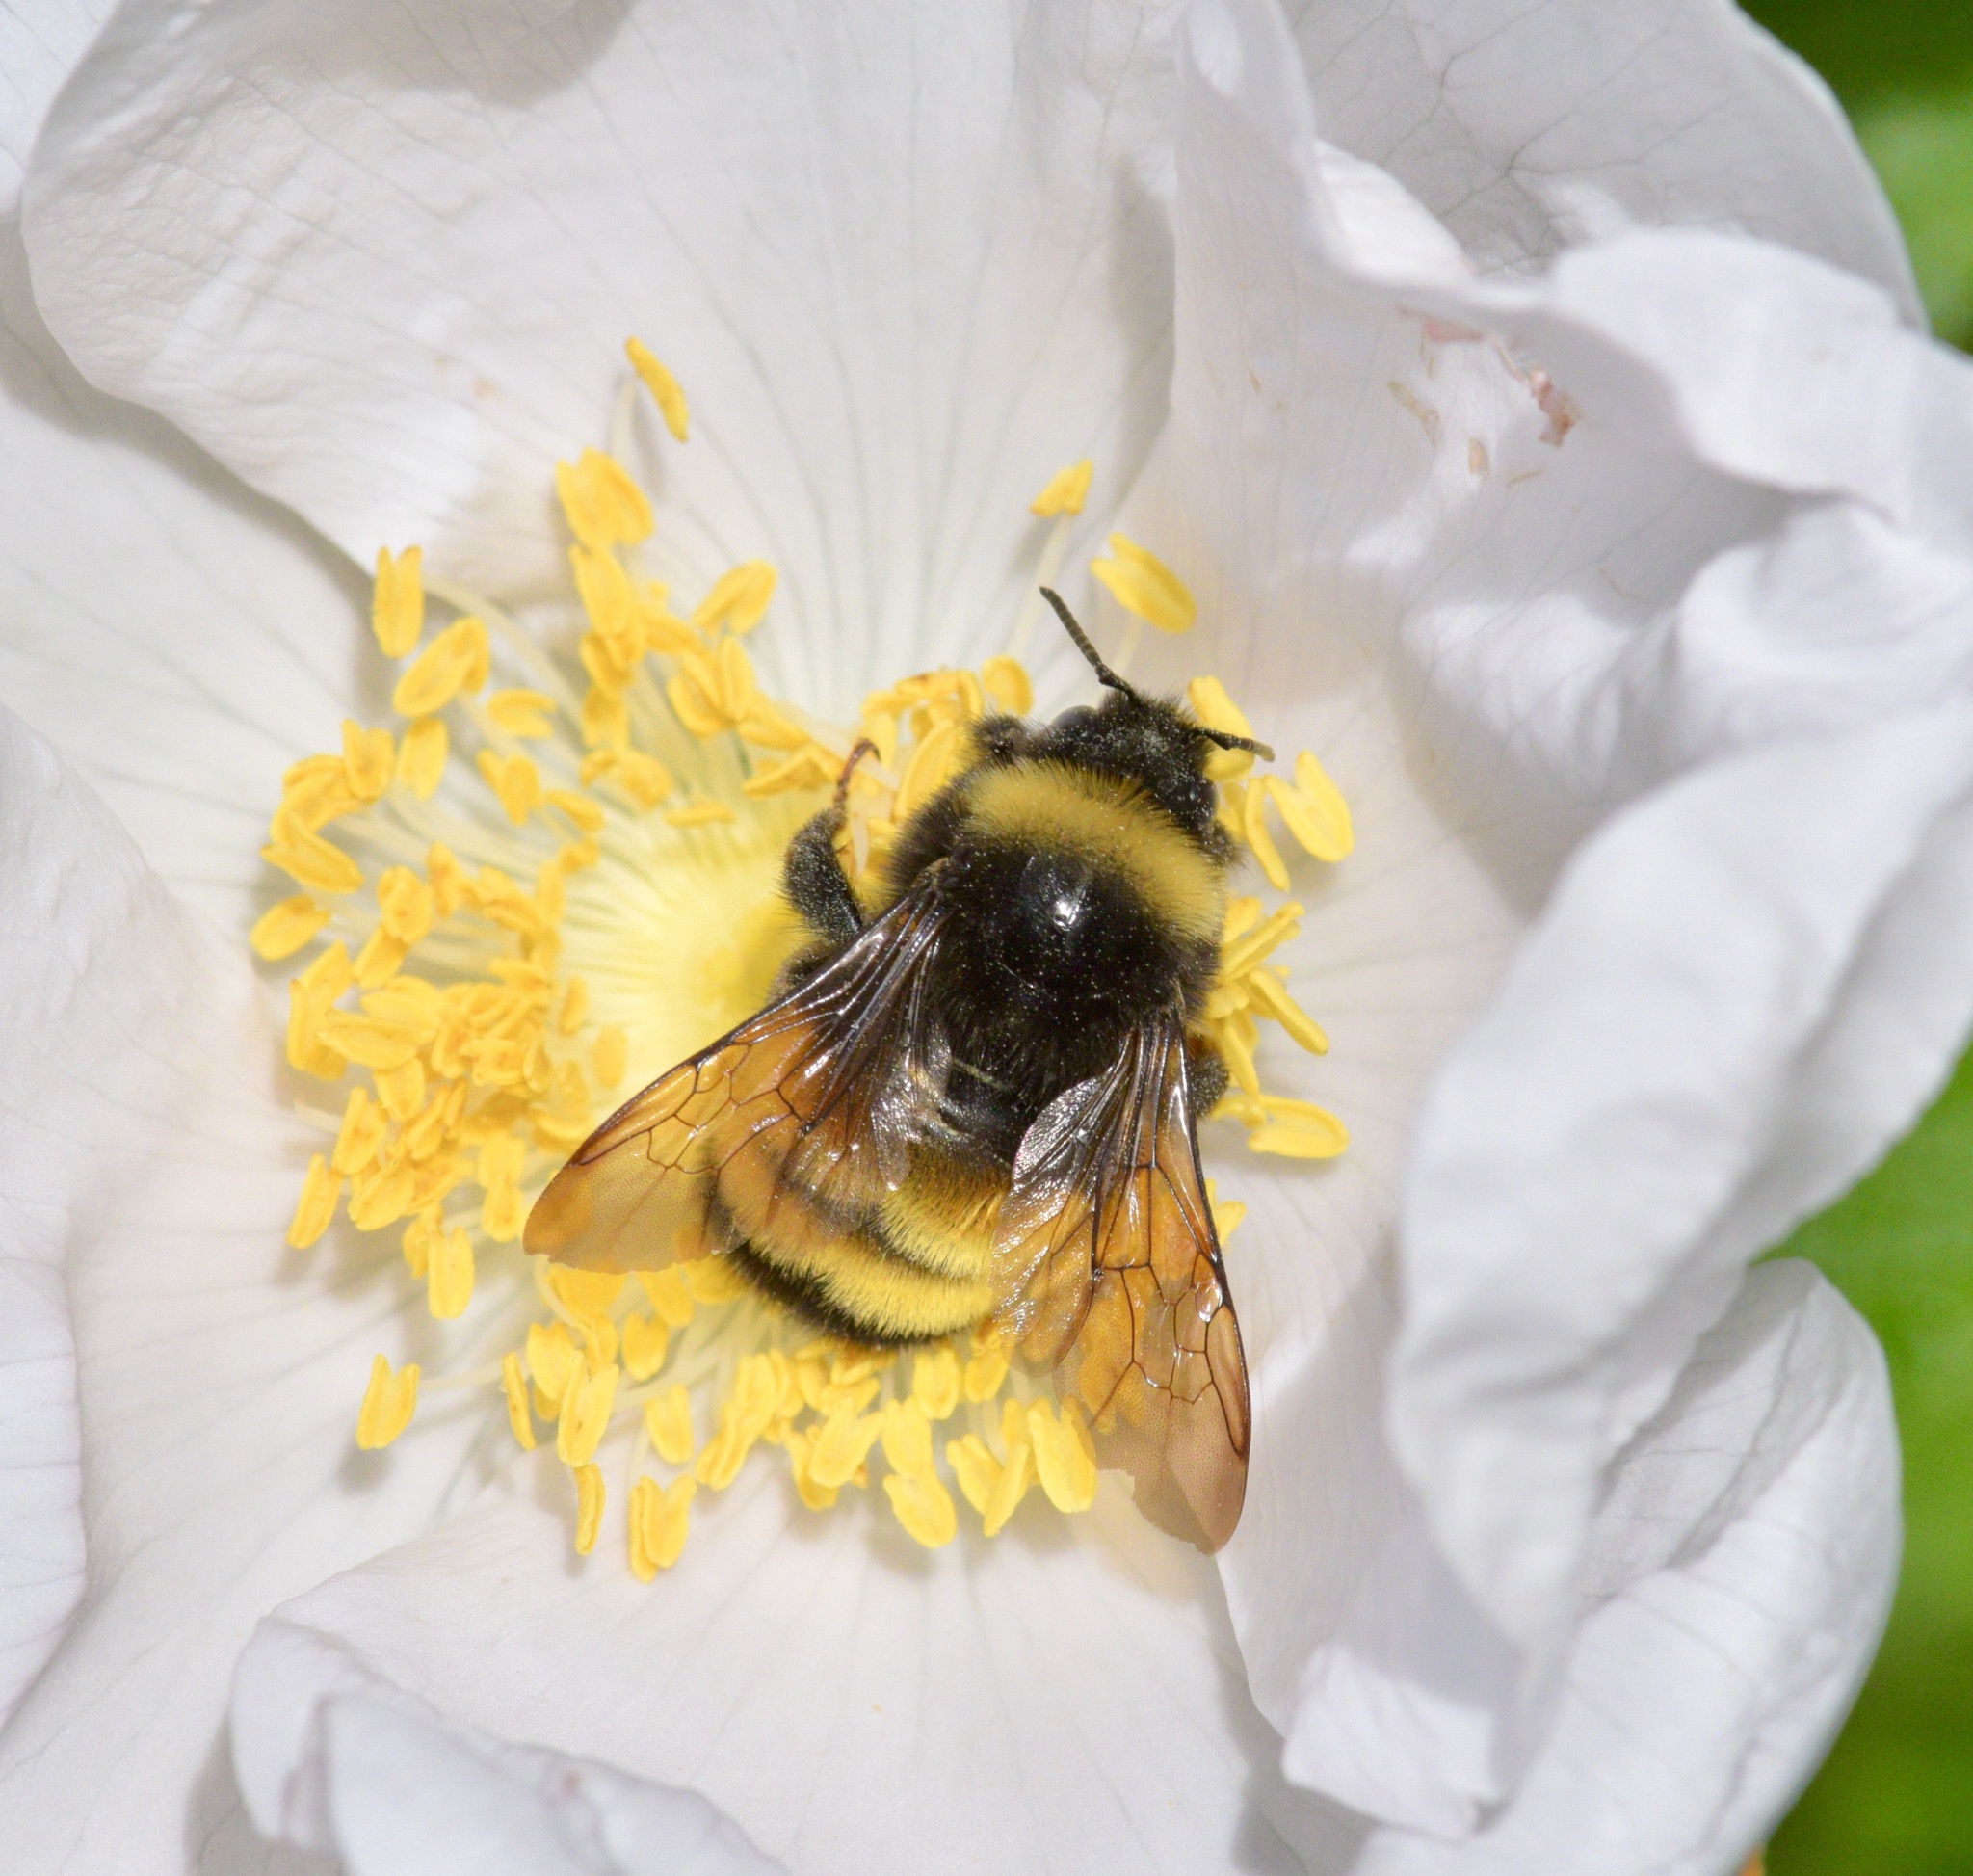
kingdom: Animalia
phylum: Arthropoda
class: Insecta
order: Hymenoptera
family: Apidae
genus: Bombus
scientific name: Bombus terricola
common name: Yellow-banded bumble bee
